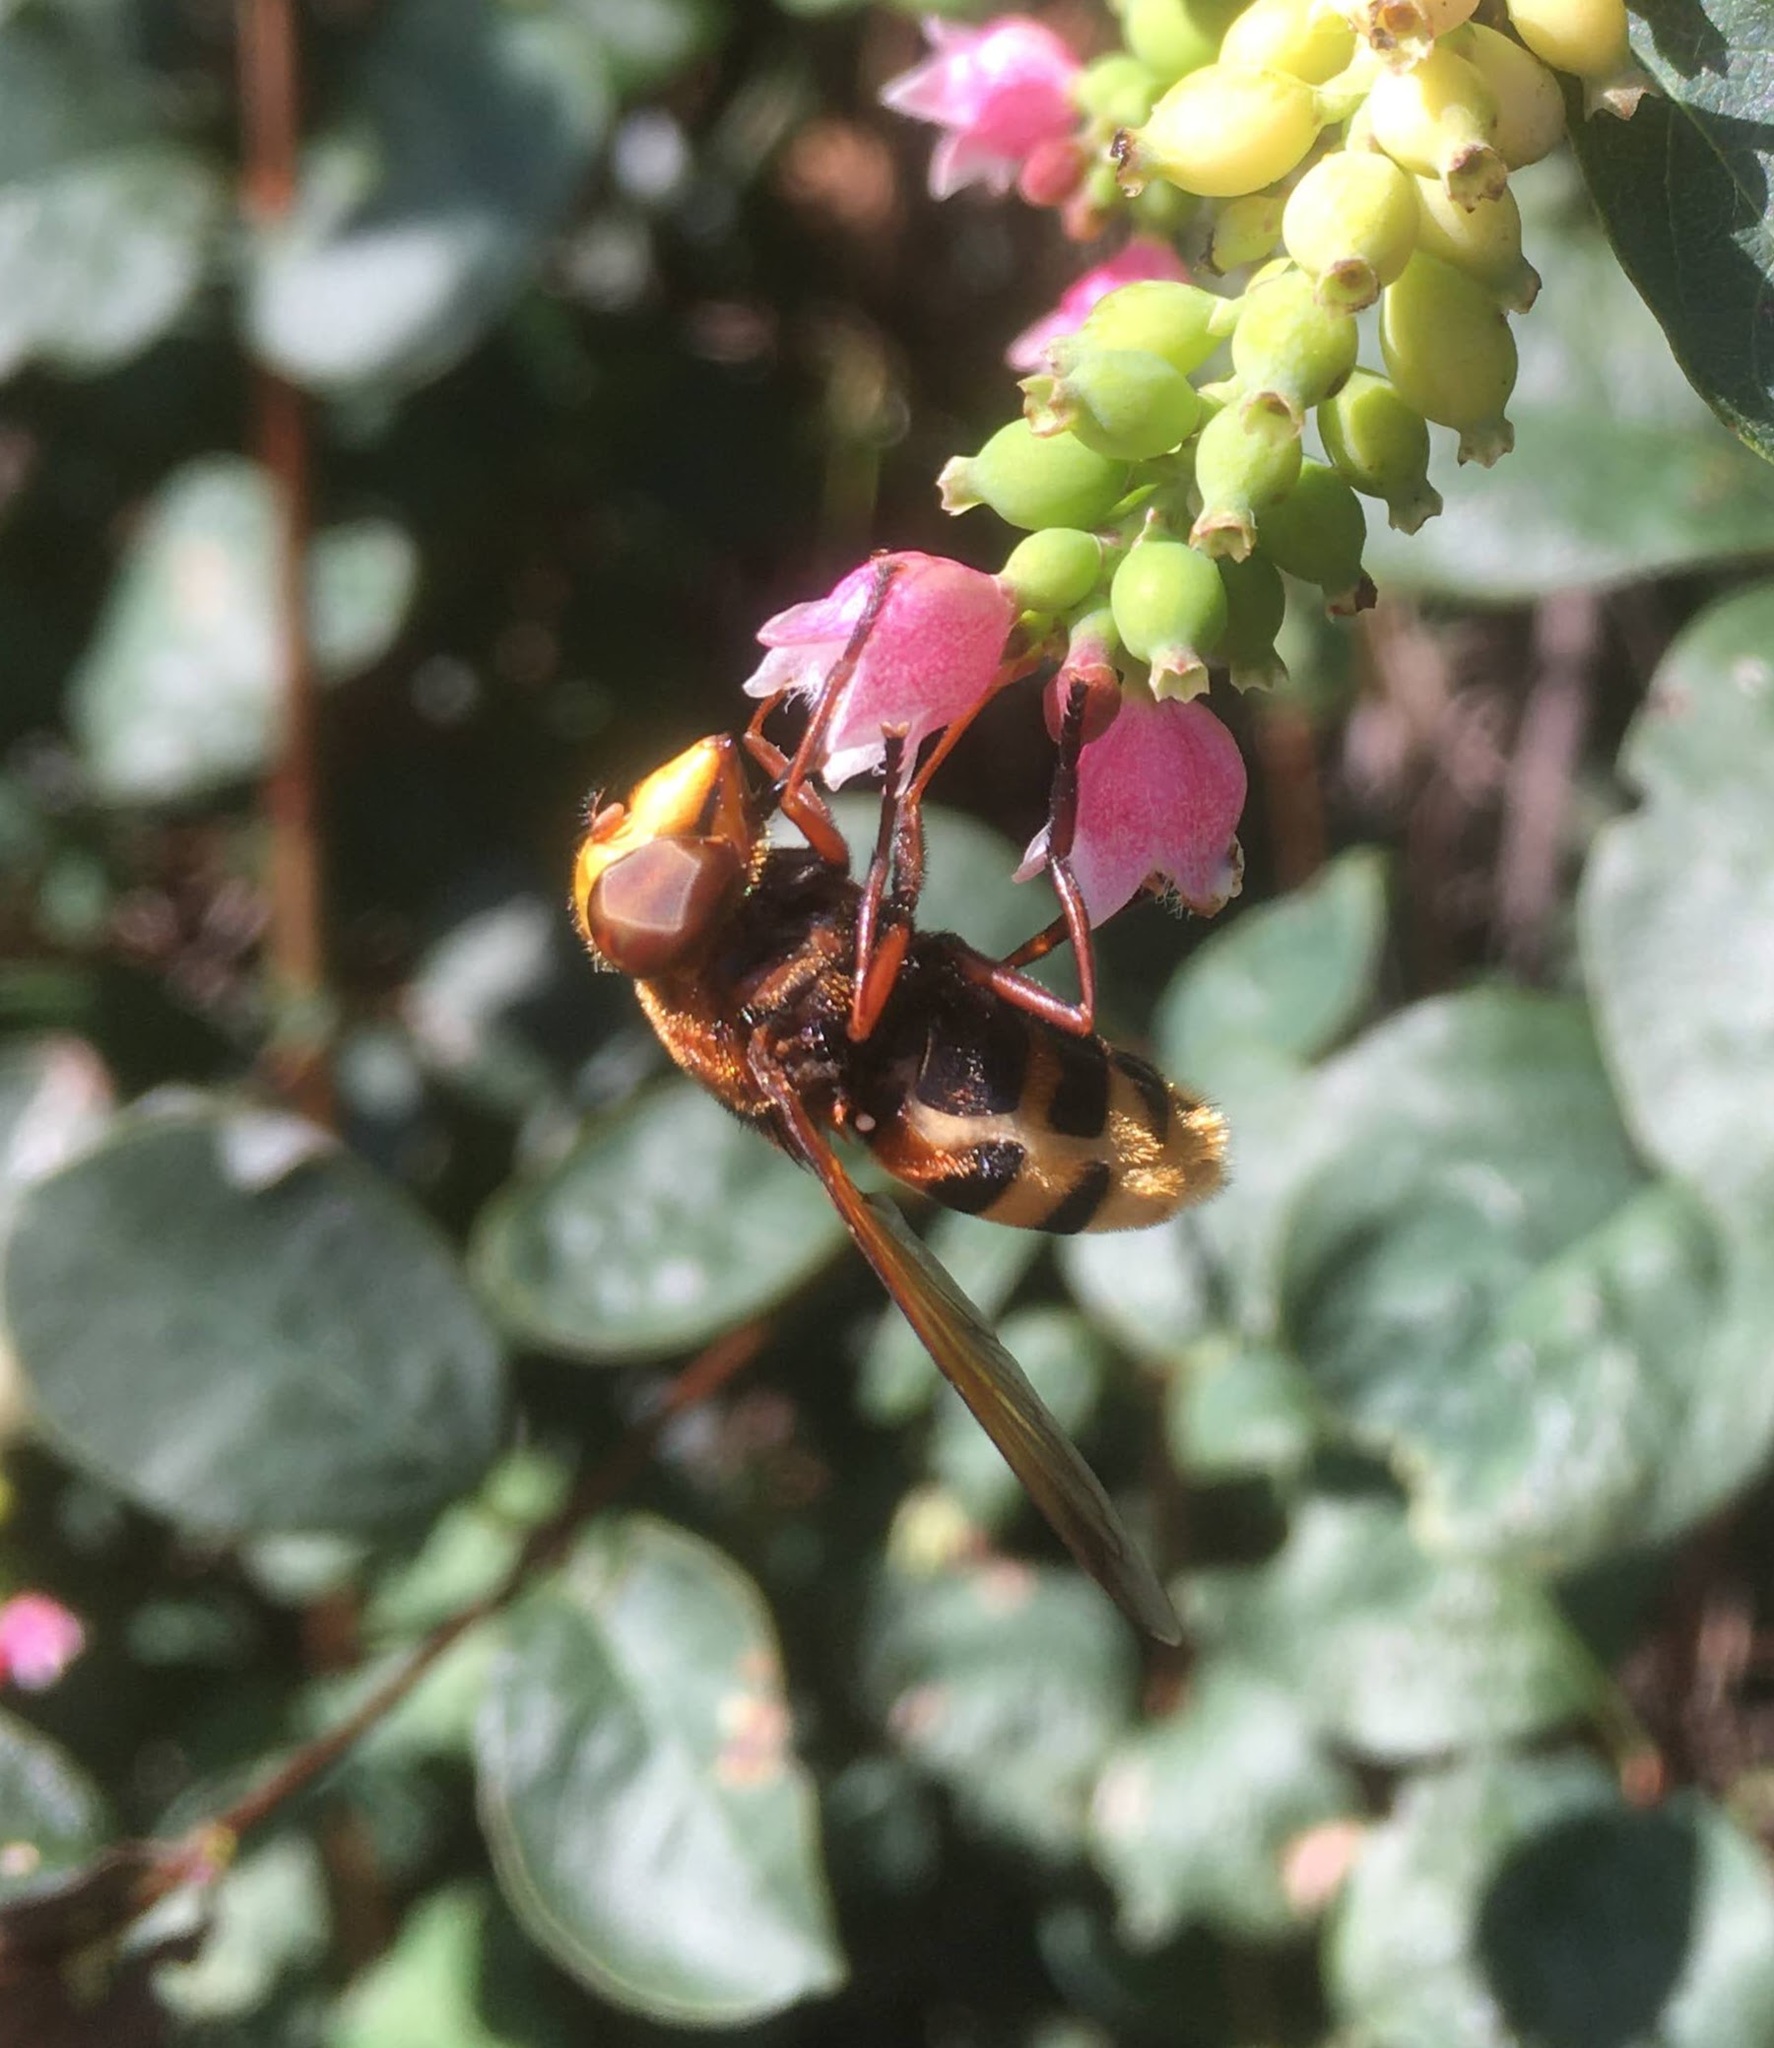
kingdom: Animalia
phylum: Arthropoda
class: Insecta
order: Diptera
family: Syrphidae
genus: Volucella
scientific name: Volucella zonaria
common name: Hornet hoverfly
